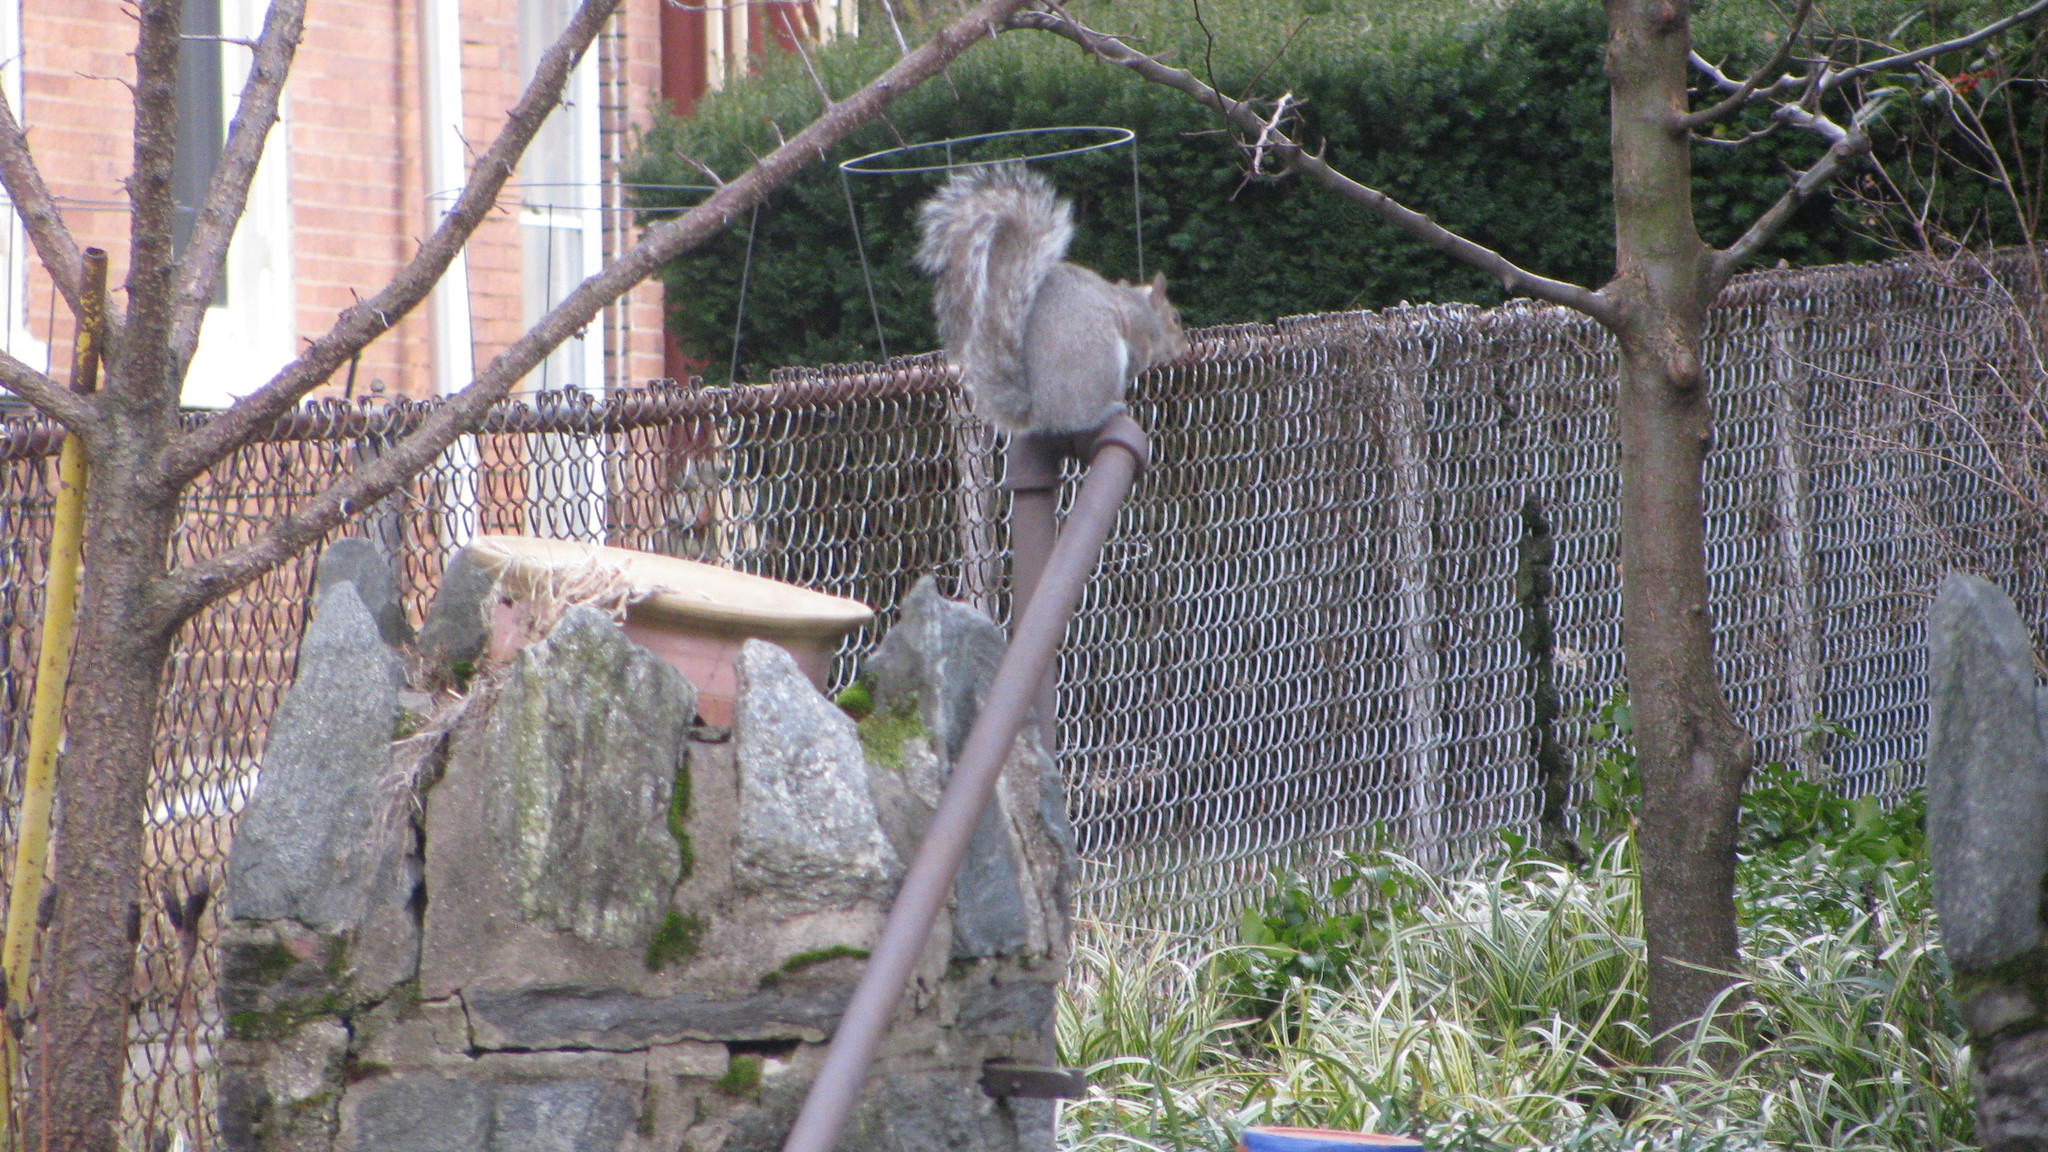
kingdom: Animalia
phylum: Chordata
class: Mammalia
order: Rodentia
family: Sciuridae
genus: Sciurus
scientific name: Sciurus carolinensis
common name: Eastern gray squirrel
